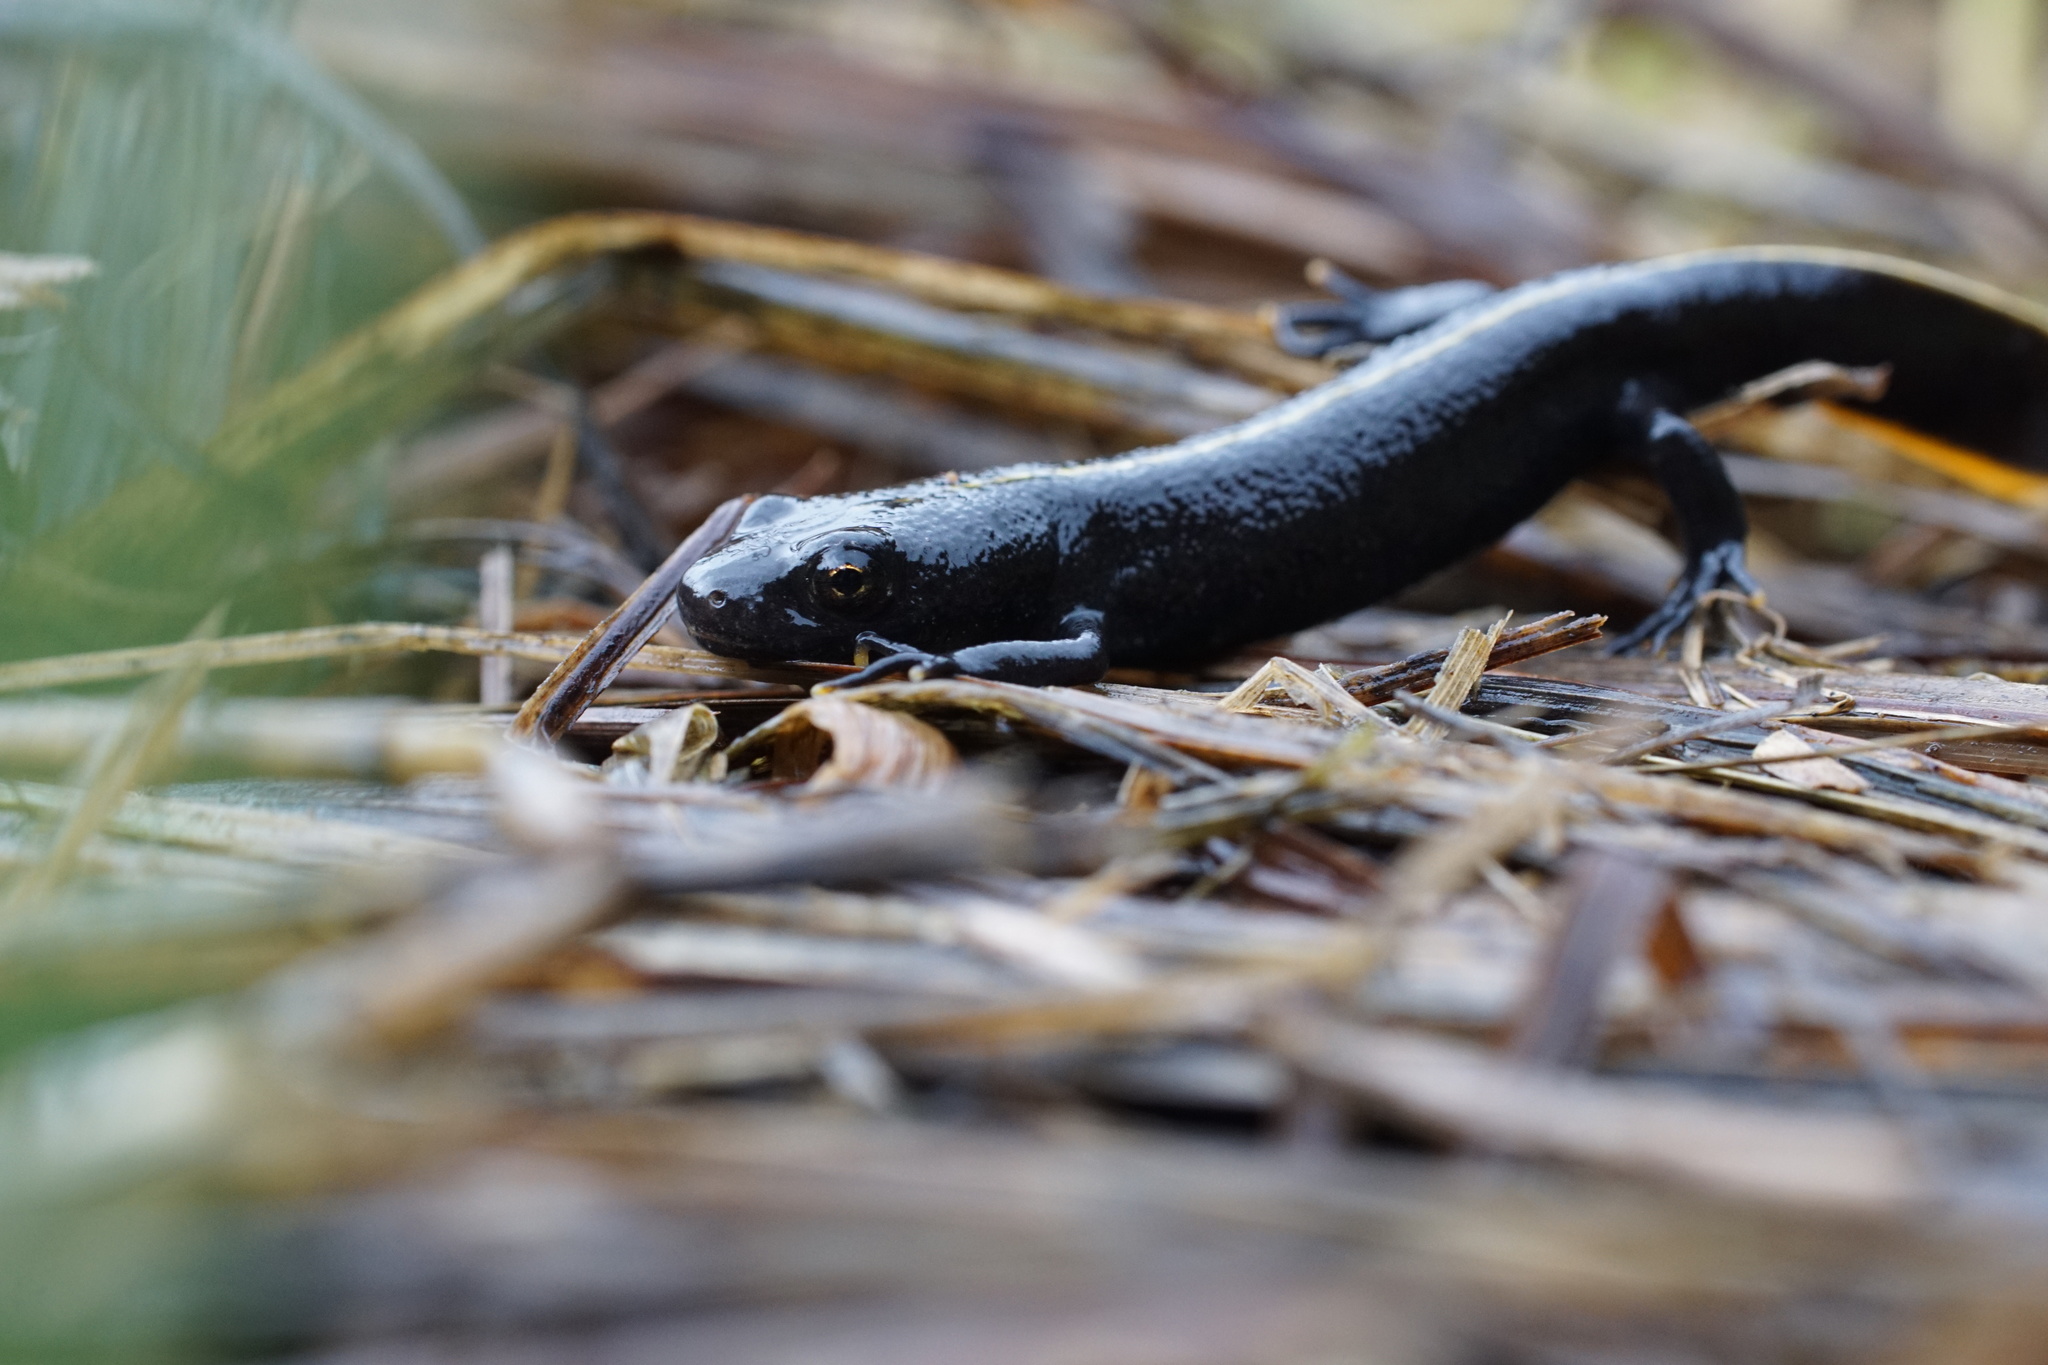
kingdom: Animalia
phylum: Chordata
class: Amphibia
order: Caudata
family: Salamandridae
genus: Triturus
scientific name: Triturus carnifex
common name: Italian crested newt
